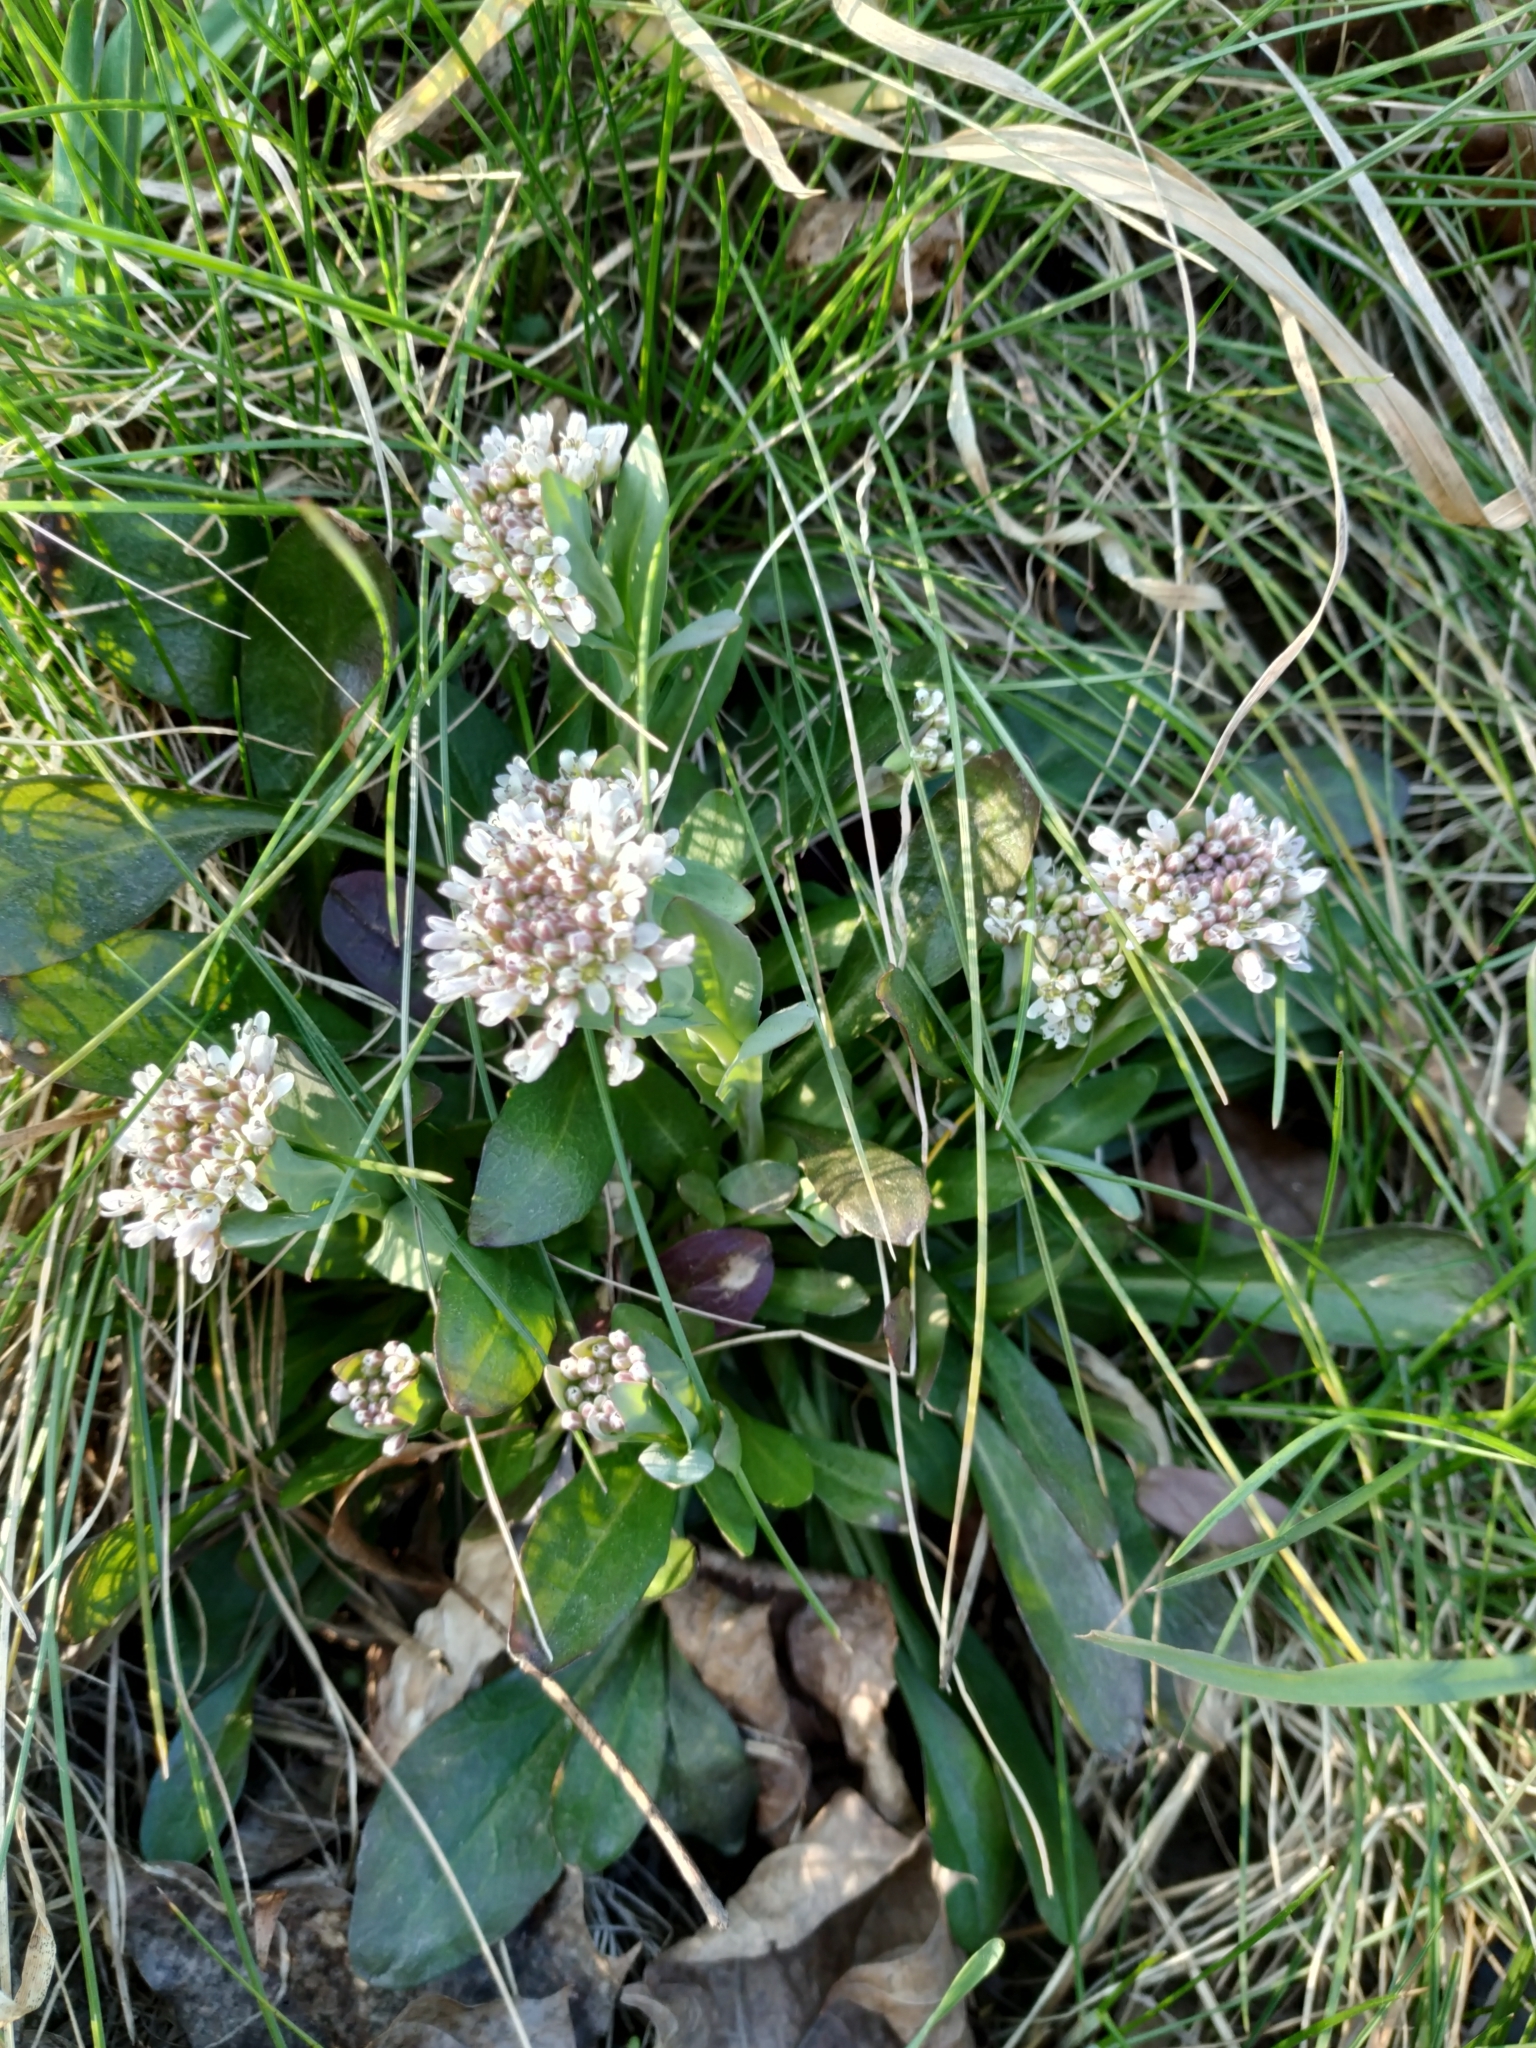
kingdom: Plantae
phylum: Tracheophyta
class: Magnoliopsida
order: Brassicales
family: Brassicaceae
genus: Noccaea
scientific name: Noccaea caerulescens
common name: Alpine pennycress
